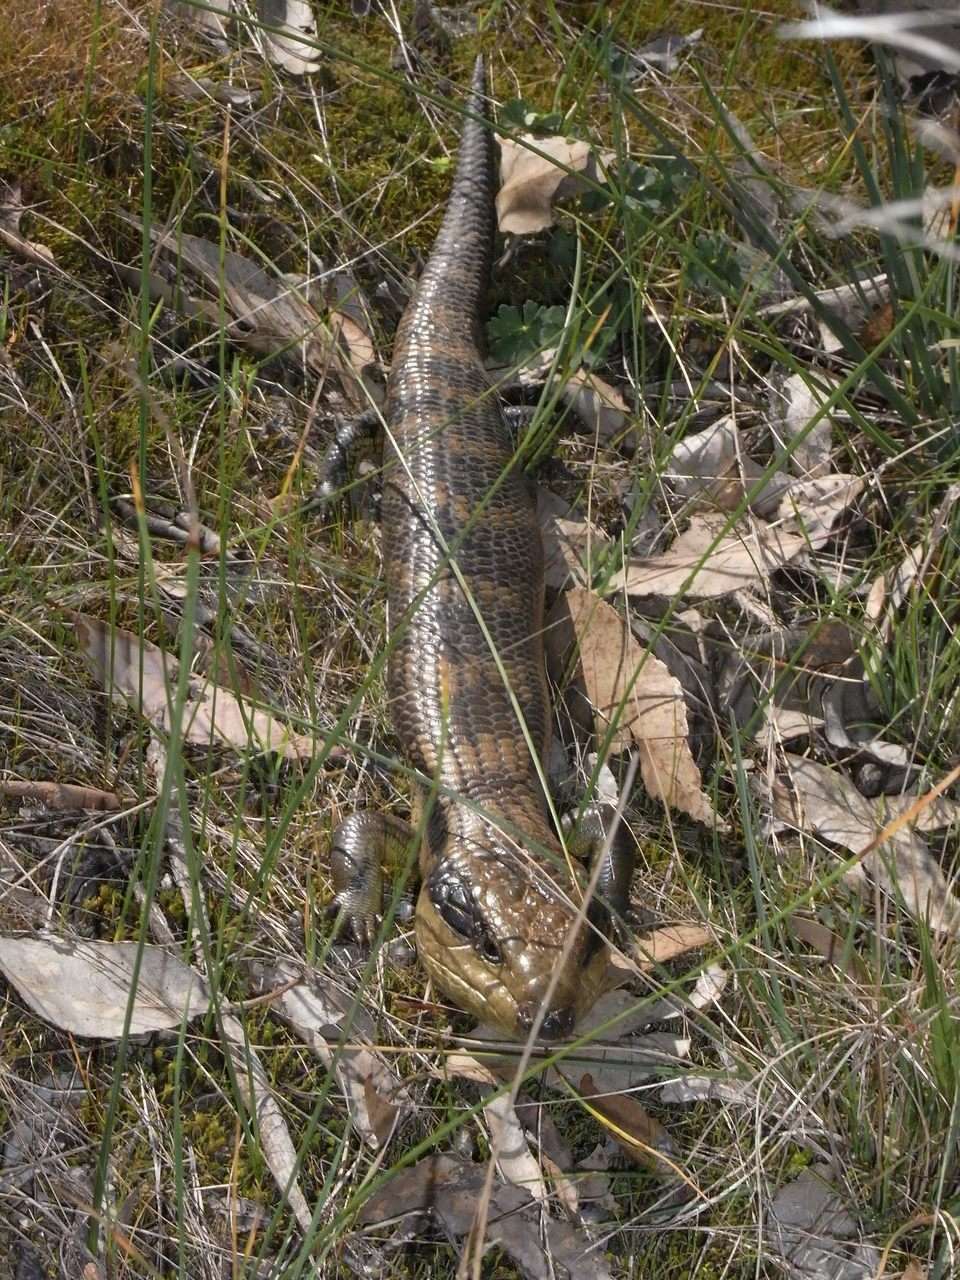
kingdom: Animalia
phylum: Chordata
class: Squamata
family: Scincidae
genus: Tiliqua
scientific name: Tiliqua scincoides
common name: Common bluetongue
